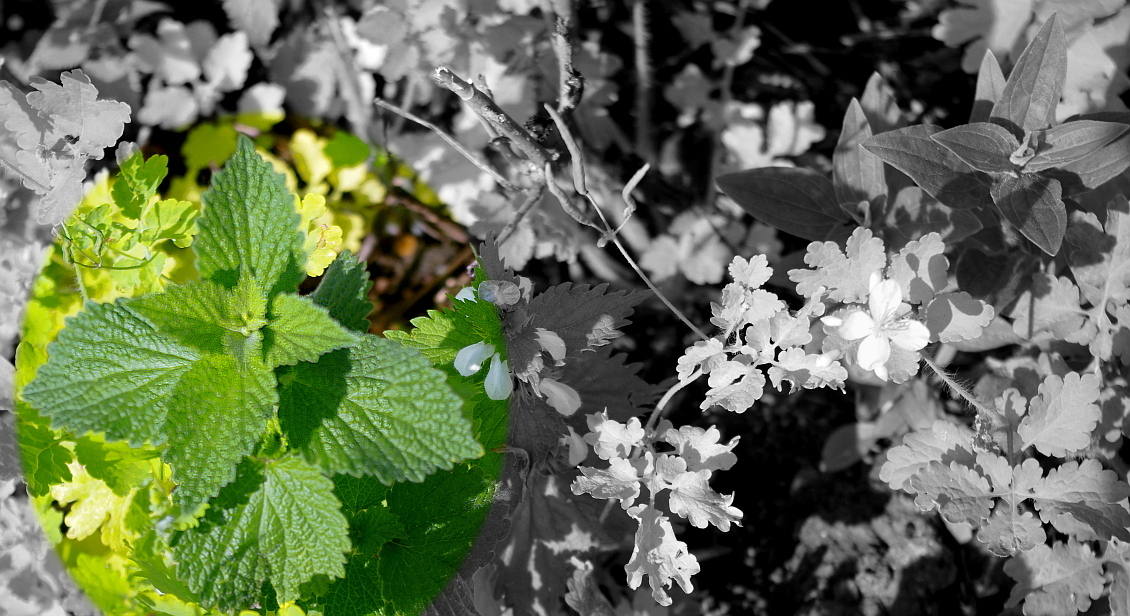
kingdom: Plantae
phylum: Tracheophyta
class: Magnoliopsida
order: Lamiales
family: Lamiaceae
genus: Ballota
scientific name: Ballota nigra
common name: Black horehound
